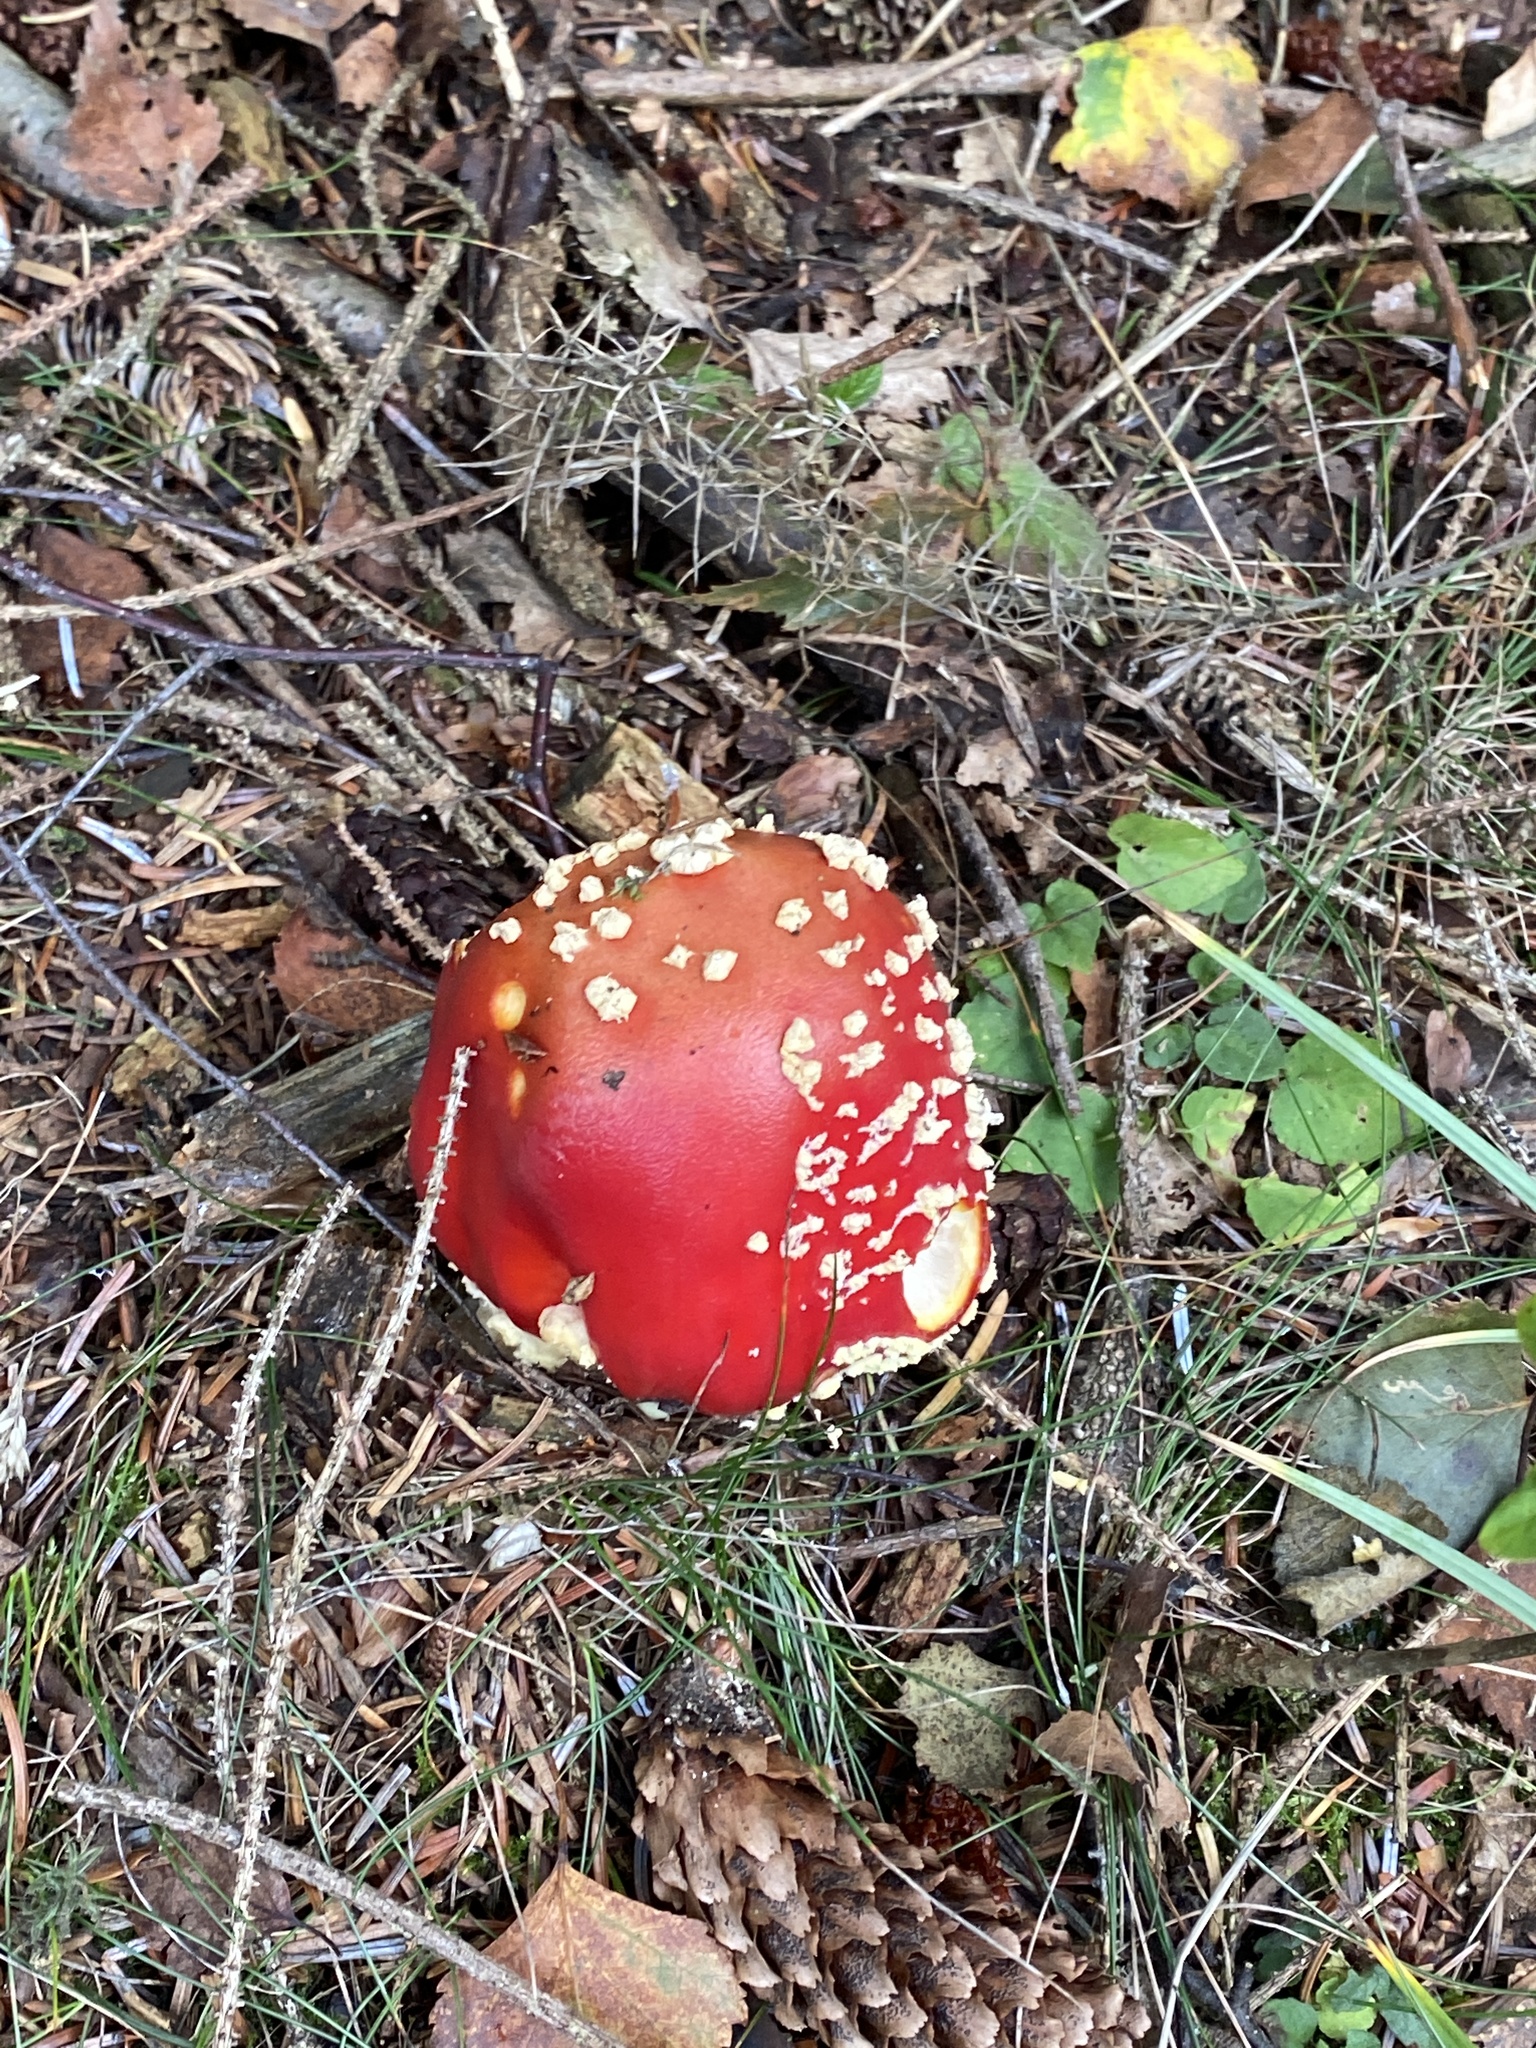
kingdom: Fungi
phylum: Basidiomycota
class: Agaricomycetes
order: Agaricales
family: Amanitaceae
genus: Amanita
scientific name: Amanita muscaria
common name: Fly agaric
